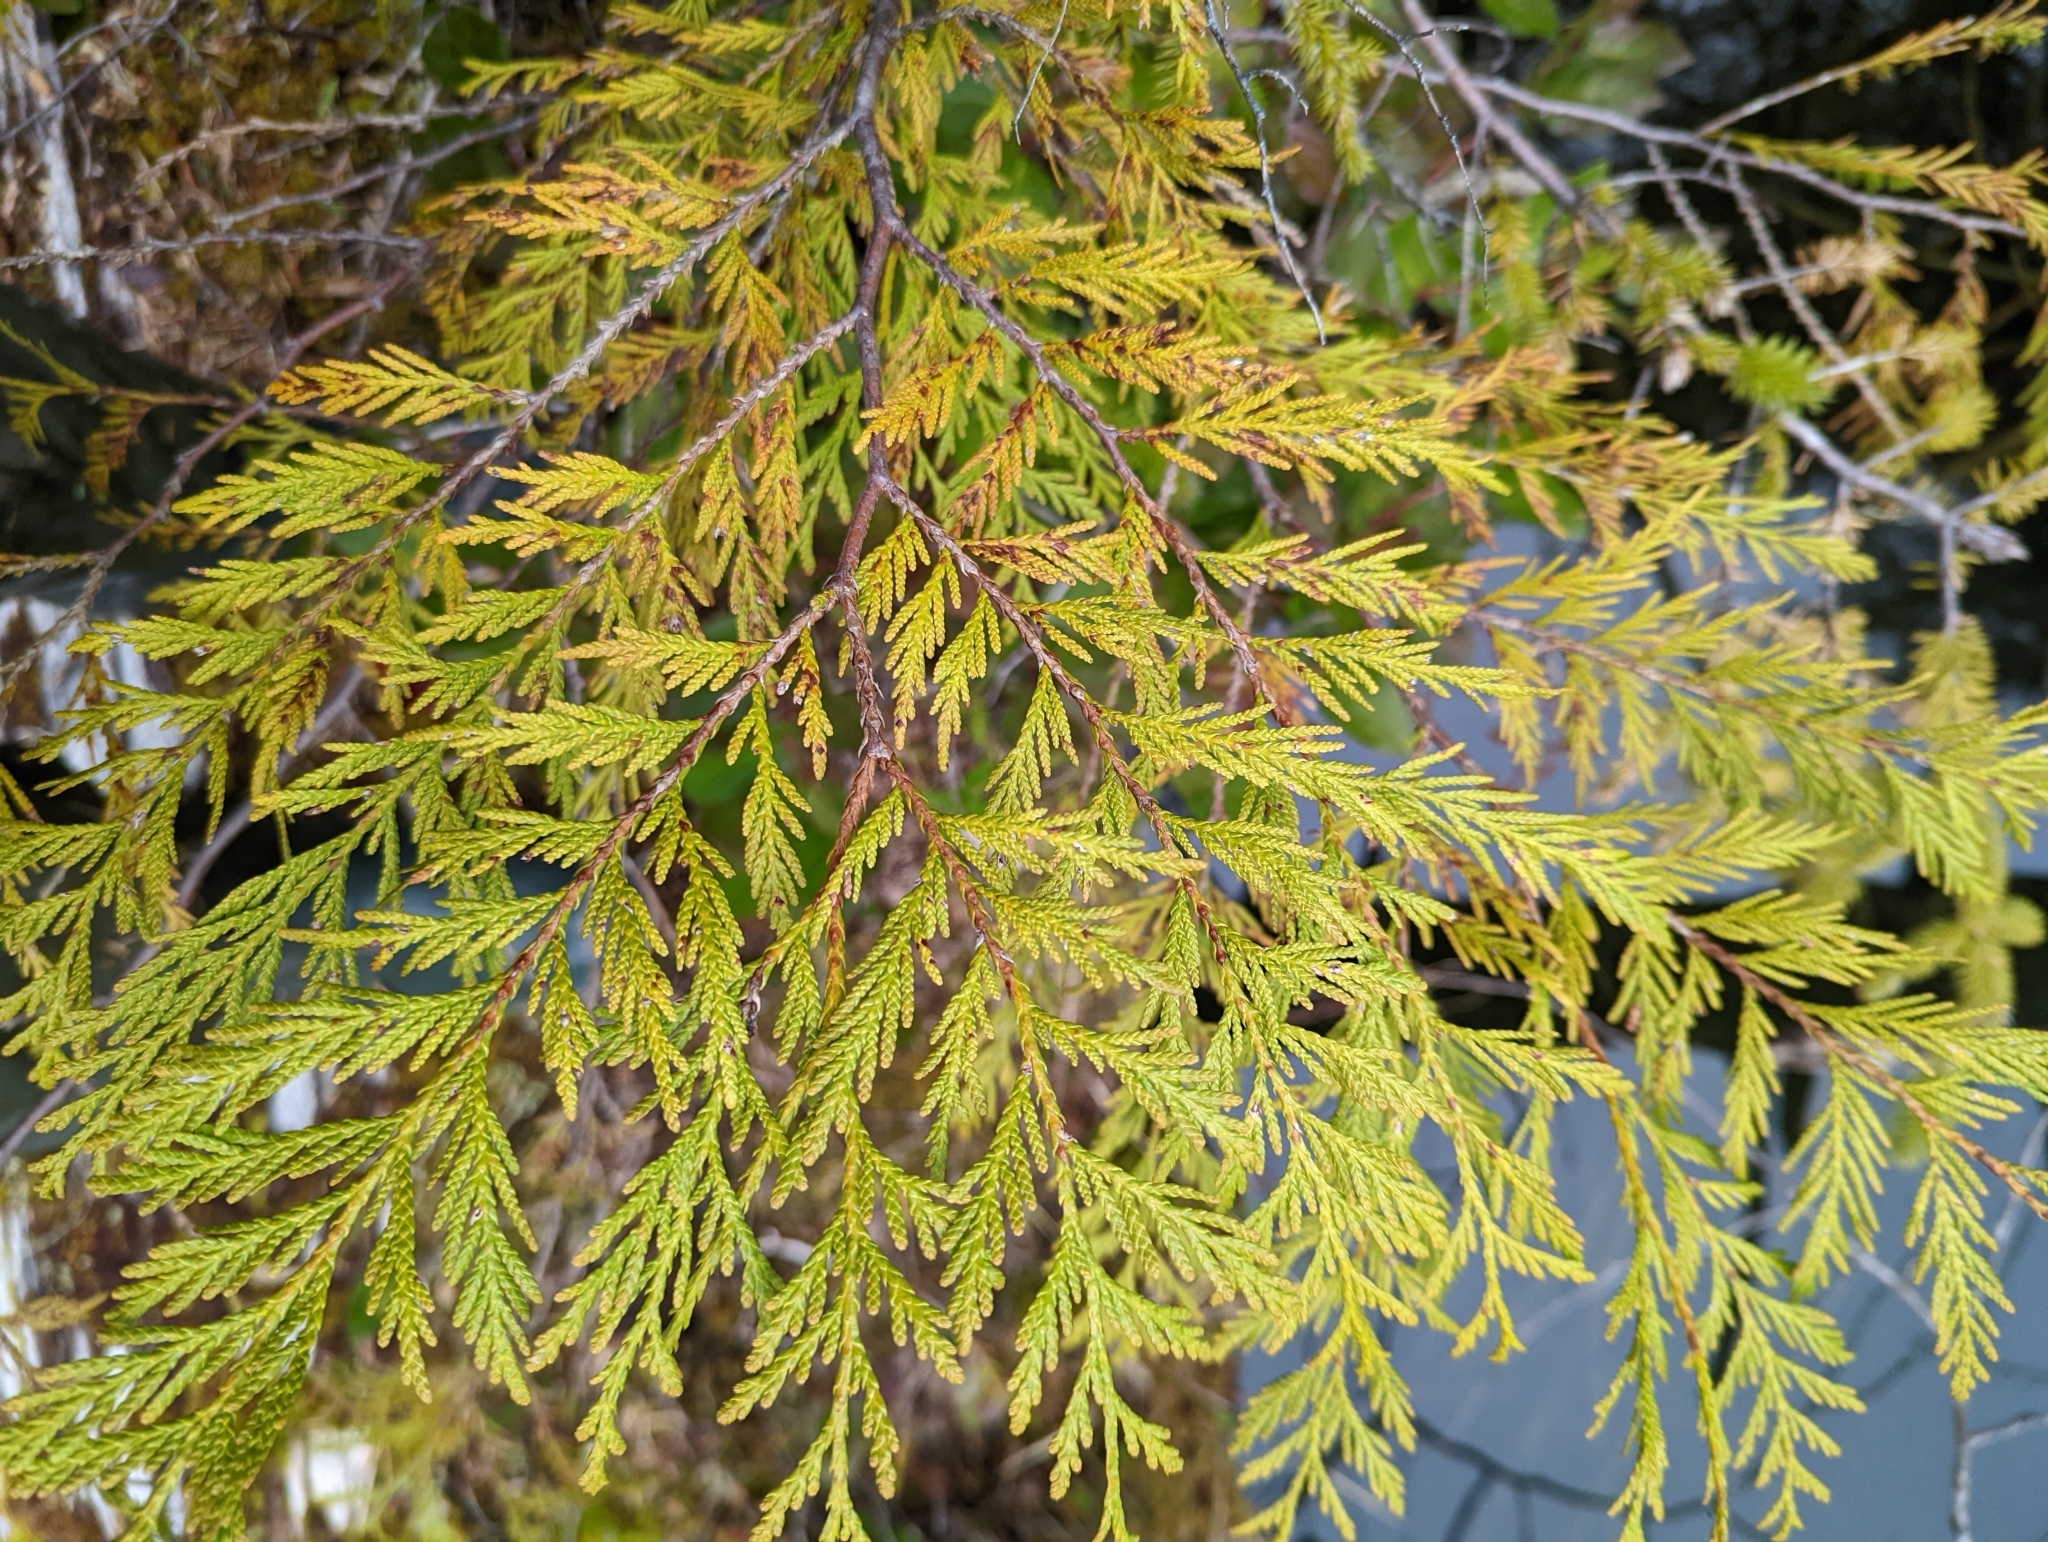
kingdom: Plantae
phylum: Tracheophyta
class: Pinopsida
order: Pinales
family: Cupressaceae
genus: Thuja
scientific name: Thuja plicata
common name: Western red-cedar
